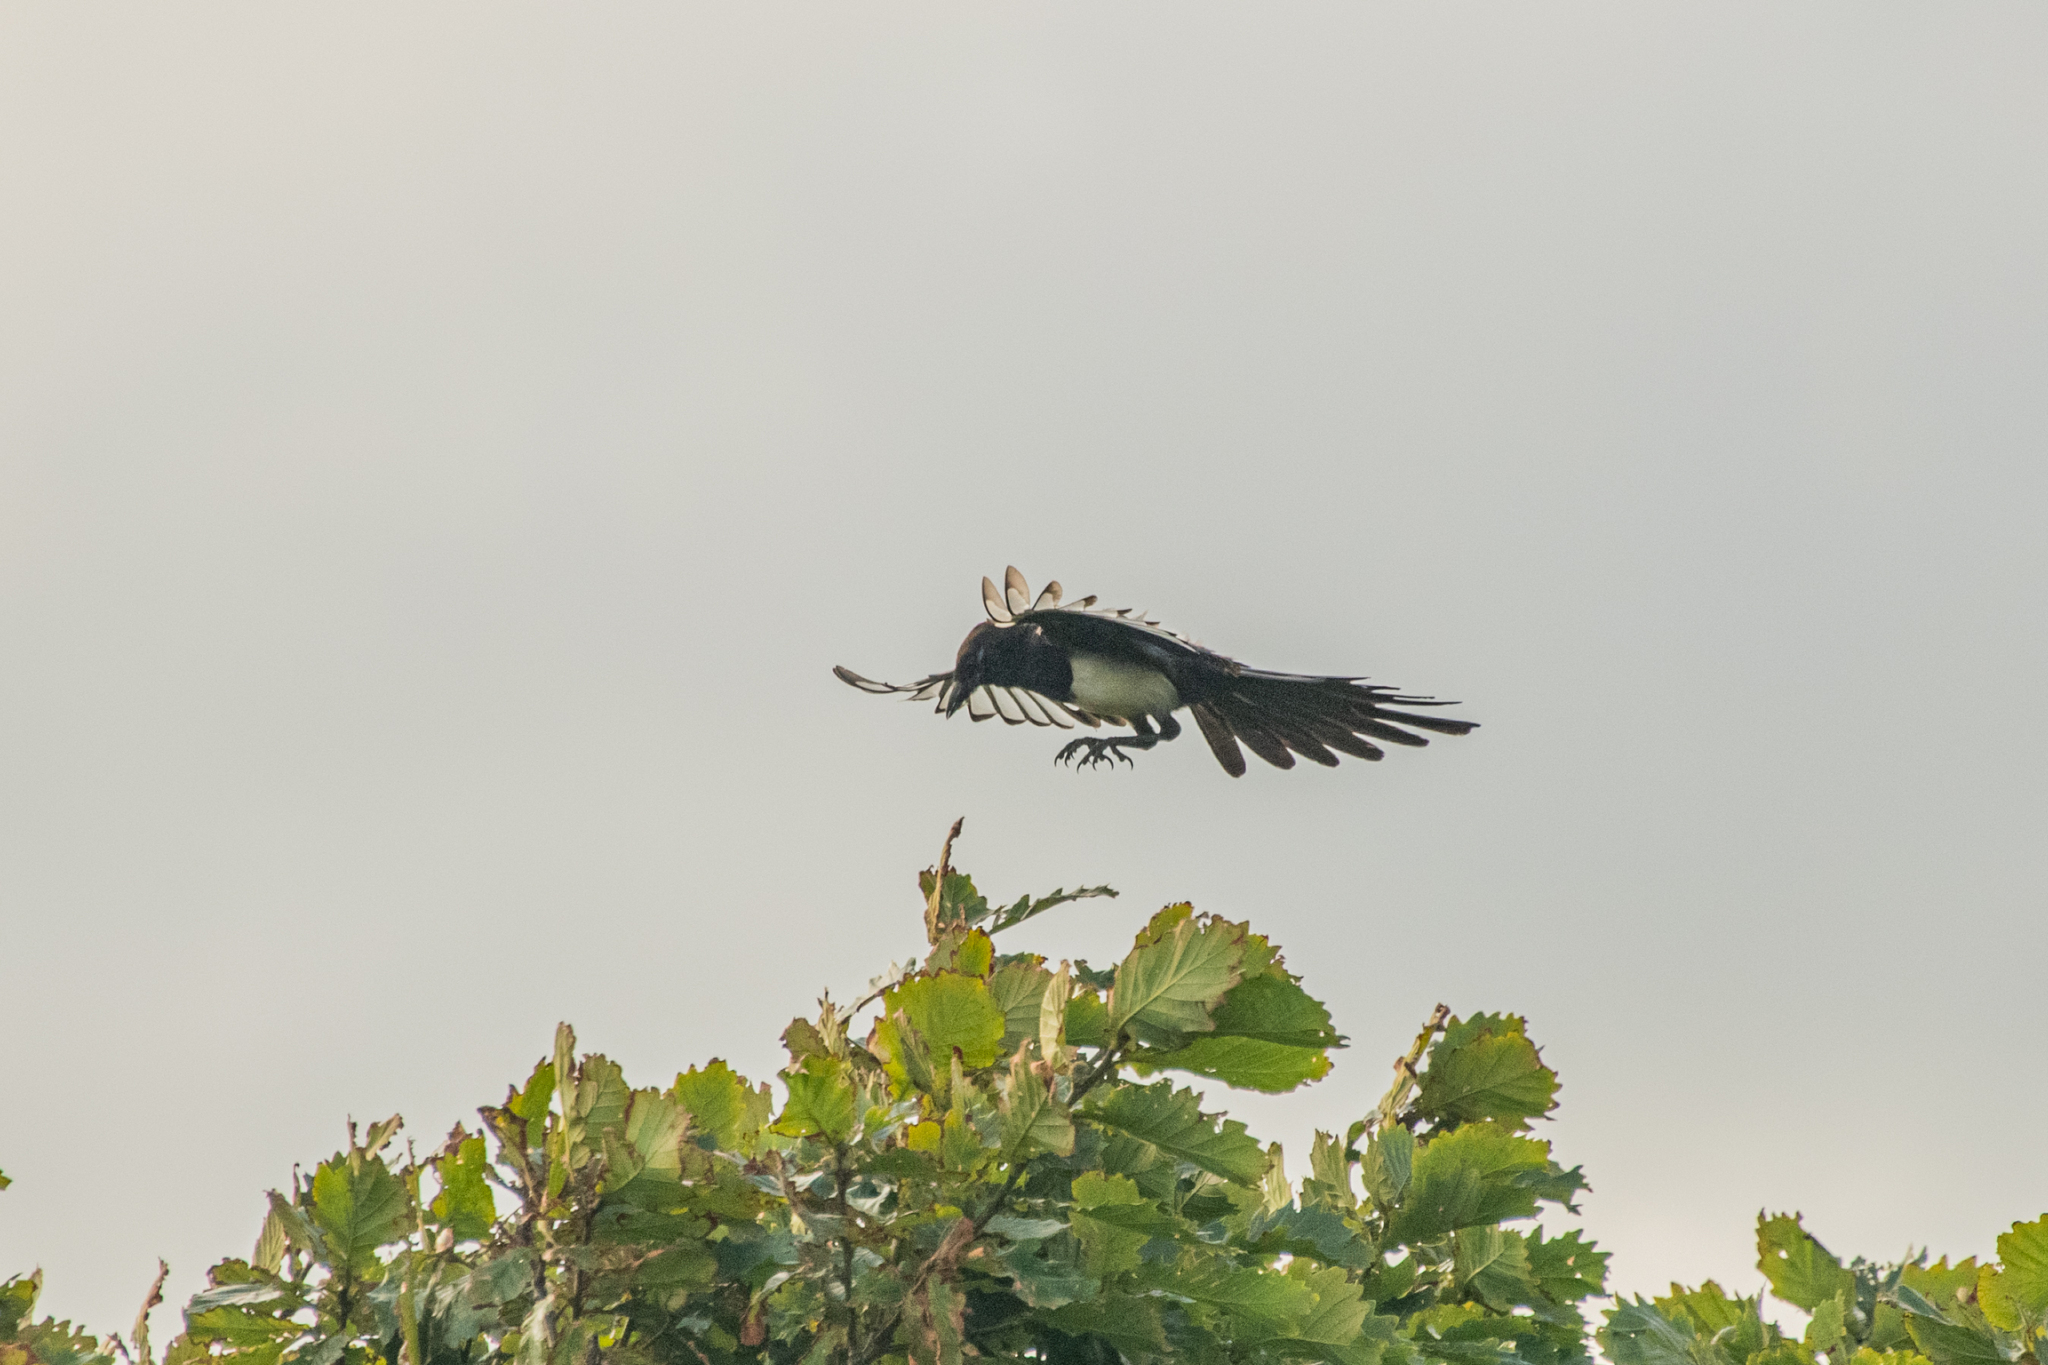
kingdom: Animalia
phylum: Chordata
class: Aves
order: Passeriformes
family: Corvidae
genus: Pica
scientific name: Pica serica
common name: Oriental magpie
